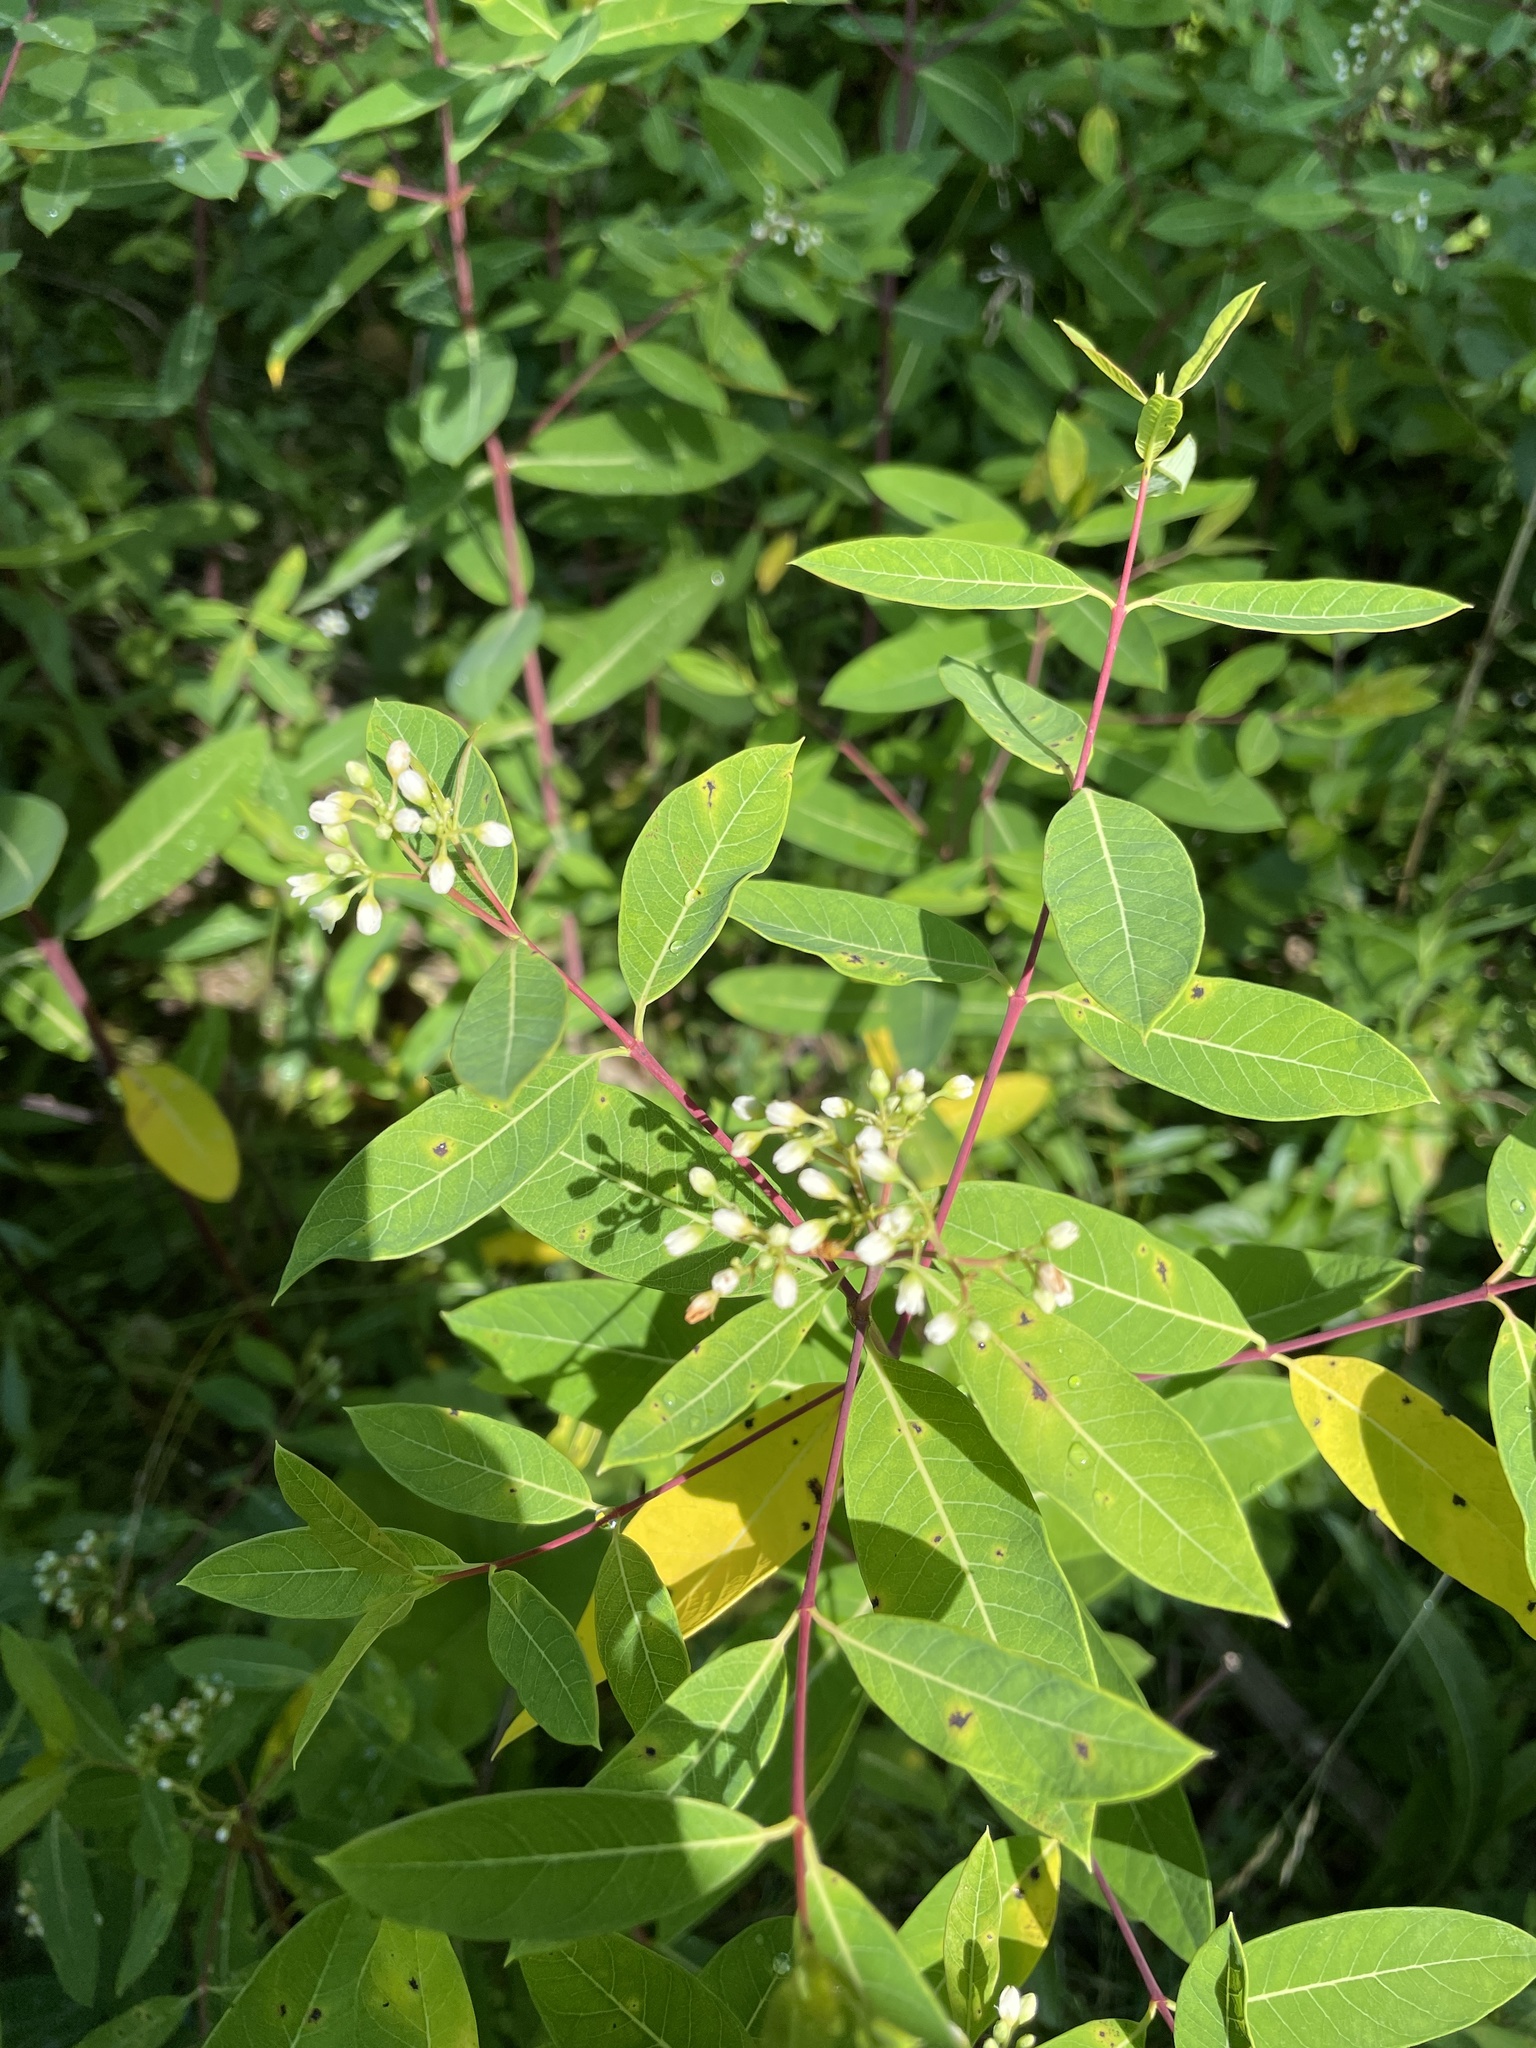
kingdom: Plantae
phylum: Tracheophyta
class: Magnoliopsida
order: Gentianales
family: Apocynaceae
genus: Apocynum
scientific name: Apocynum cannabinum
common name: Hemp dogbane
